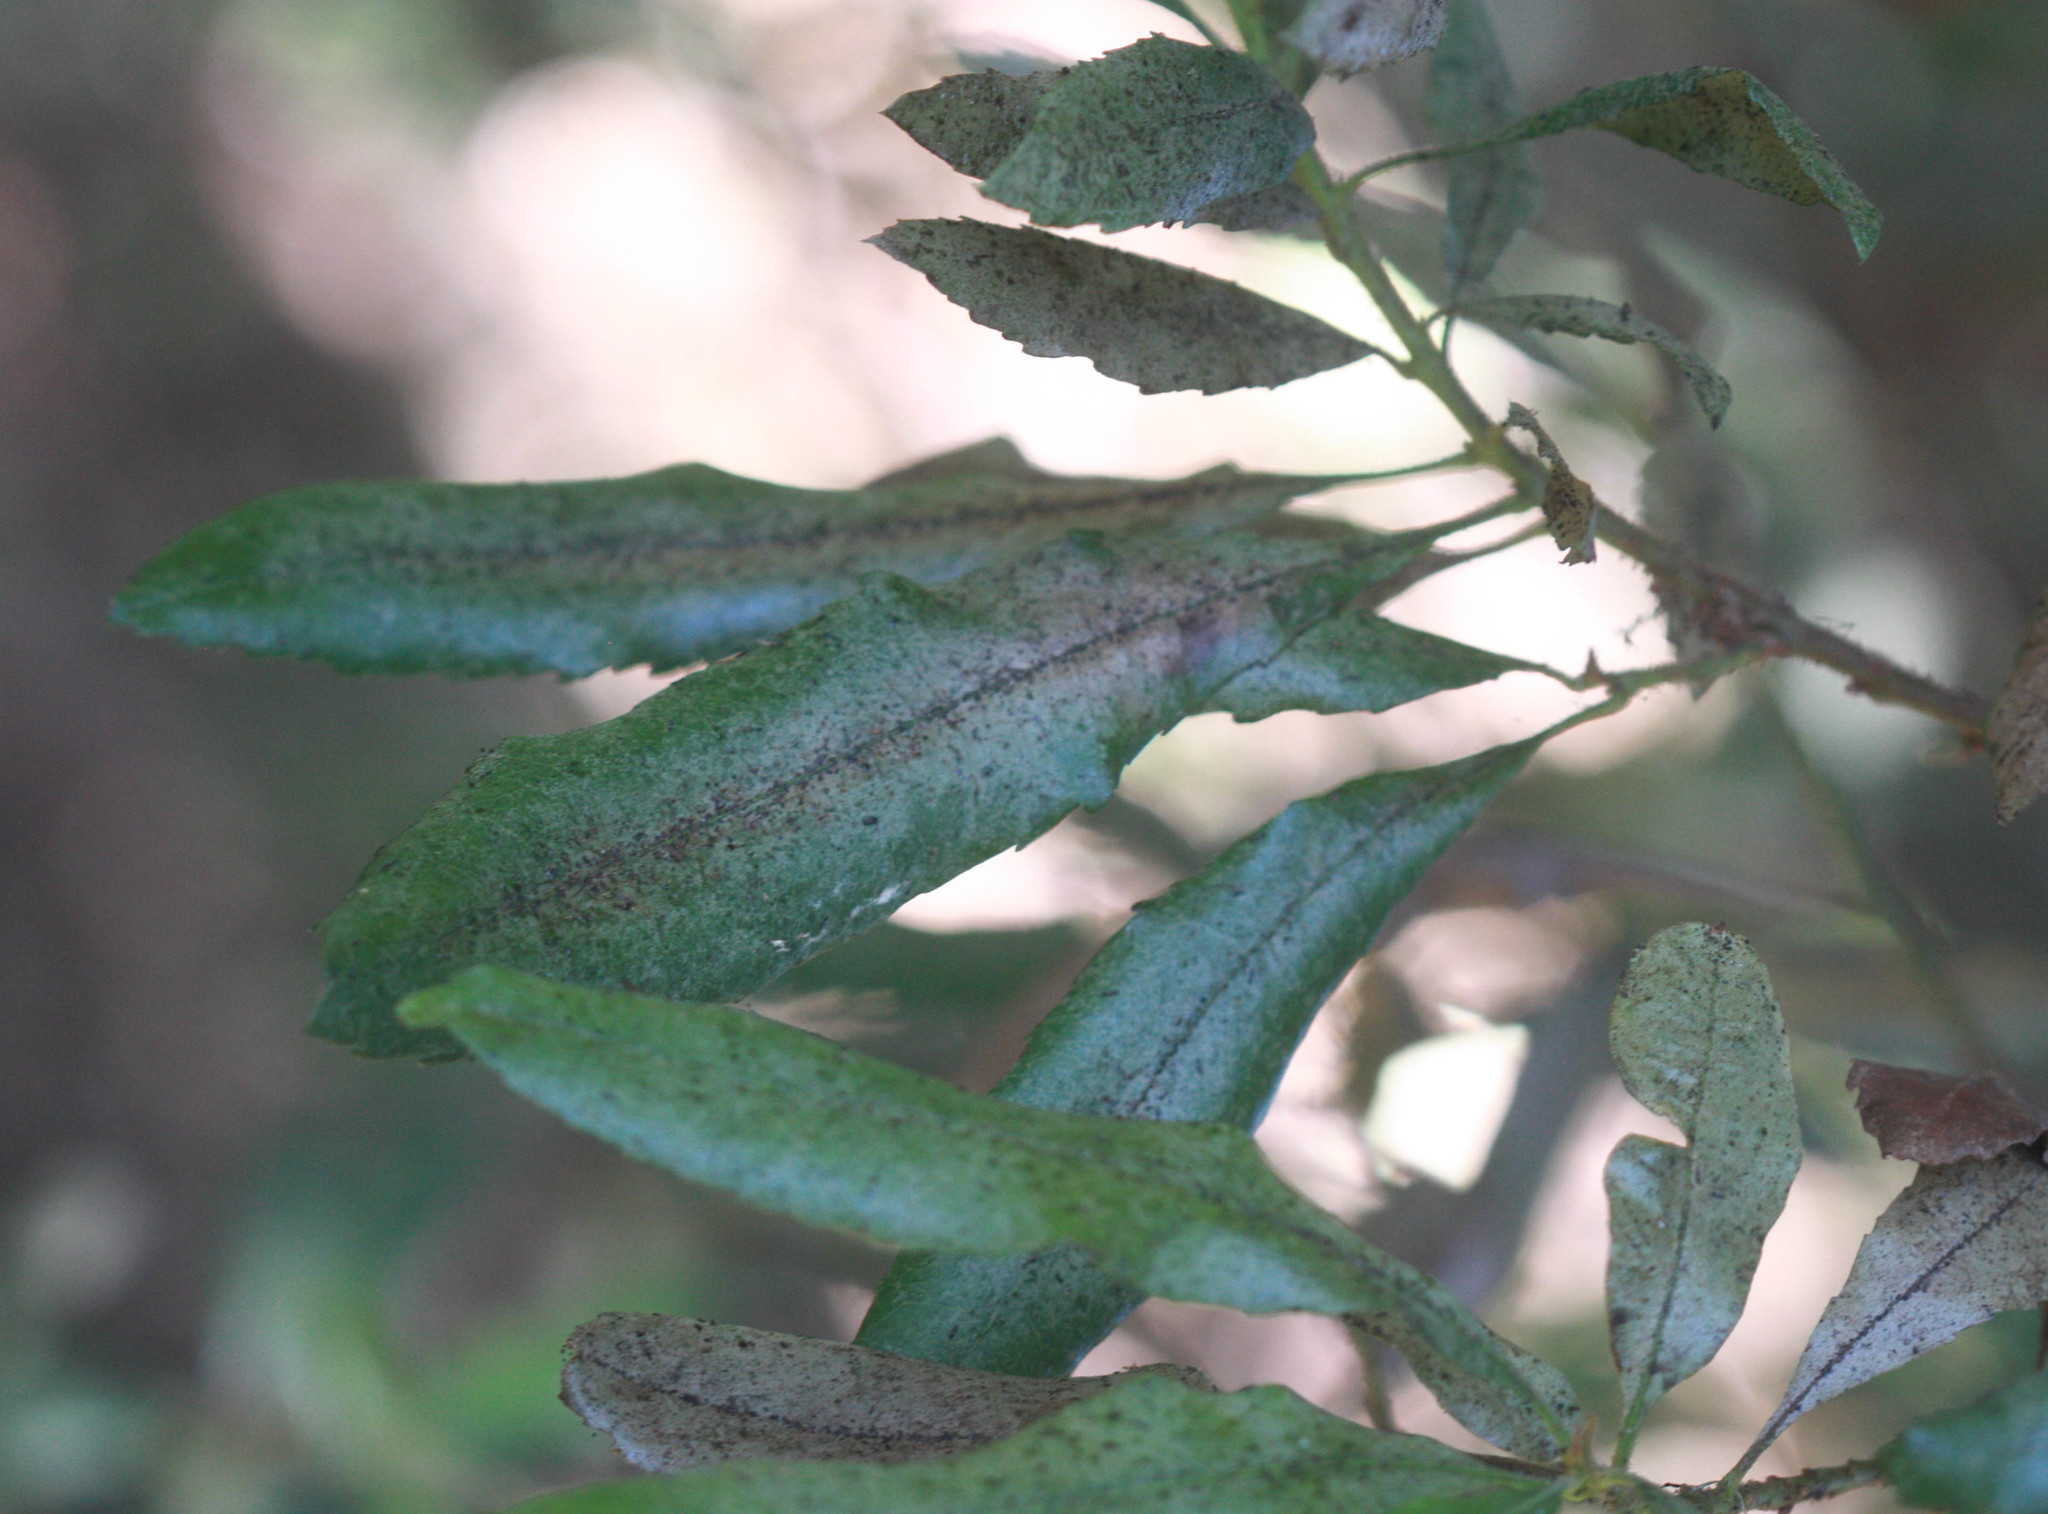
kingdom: Plantae
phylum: Tracheophyta
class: Magnoliopsida
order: Fagales
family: Myricaceae
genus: Morella
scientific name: Morella californica
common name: California wax-myrtle
